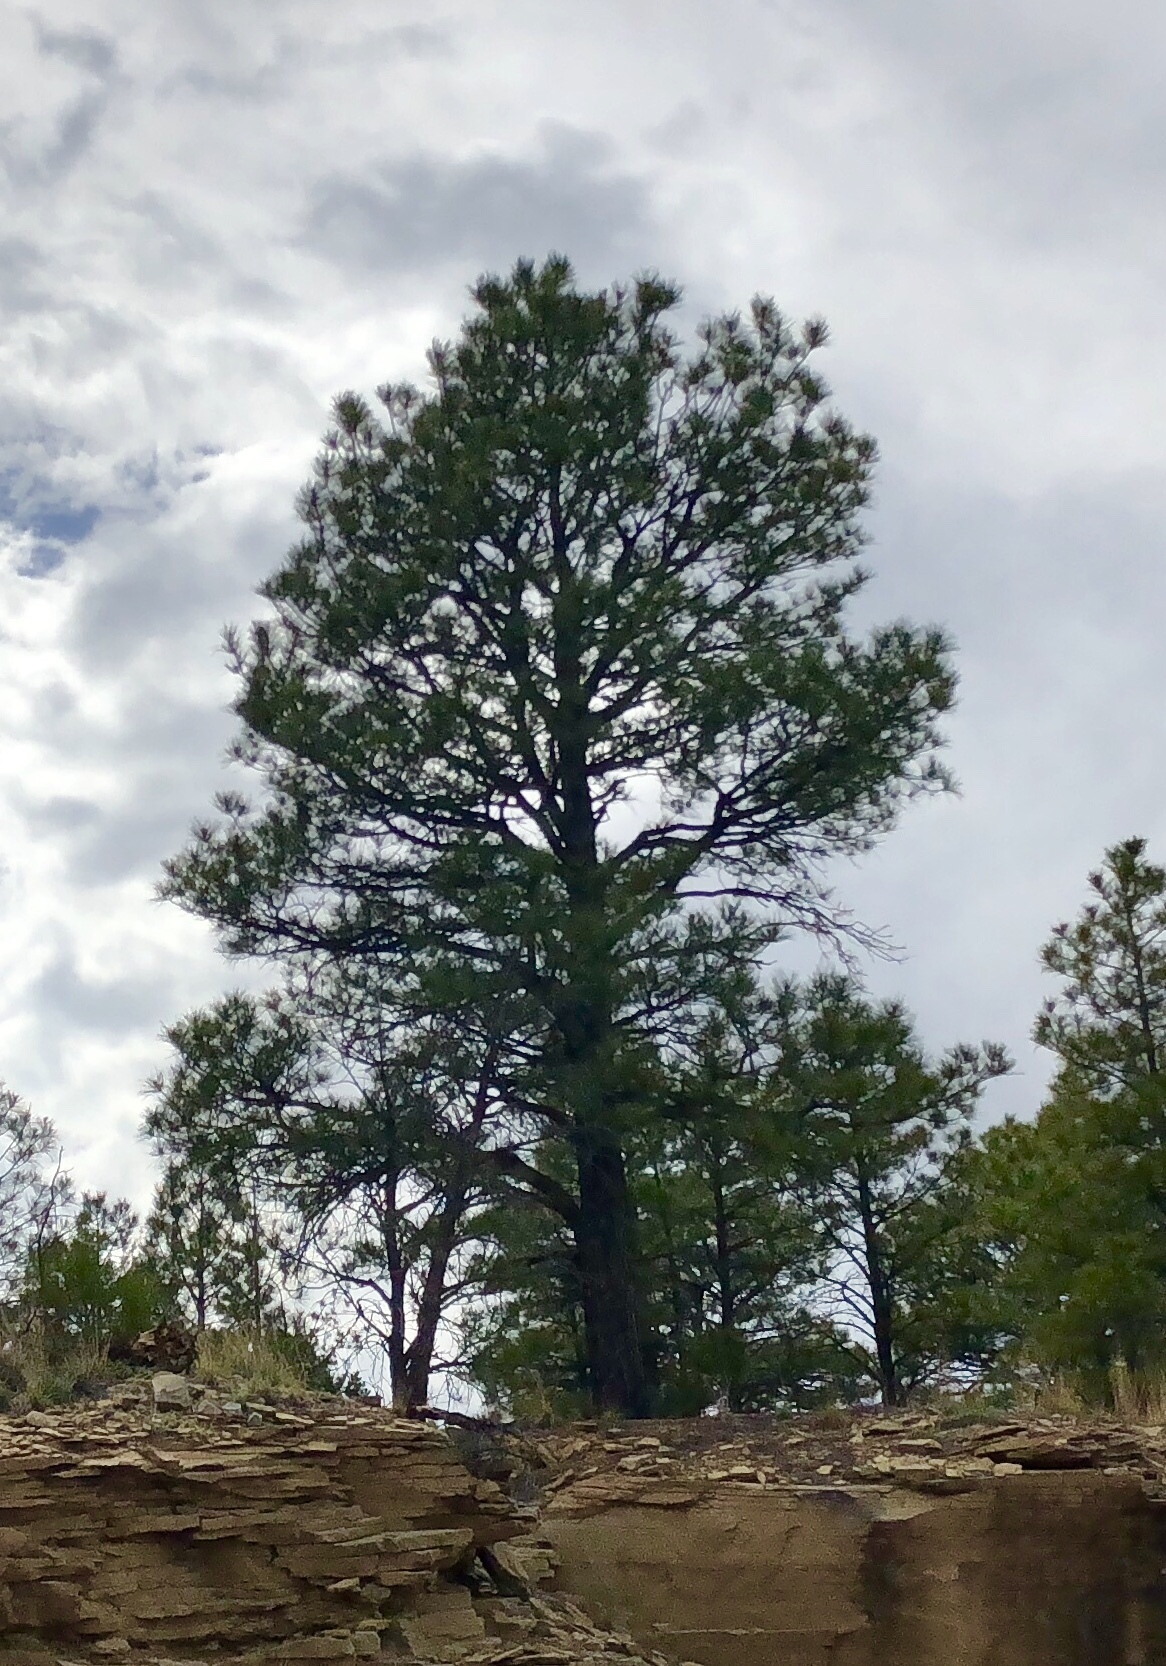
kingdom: Plantae
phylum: Tracheophyta
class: Pinopsida
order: Pinales
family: Pinaceae
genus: Pinus
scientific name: Pinus ponderosa
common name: Western yellow-pine
